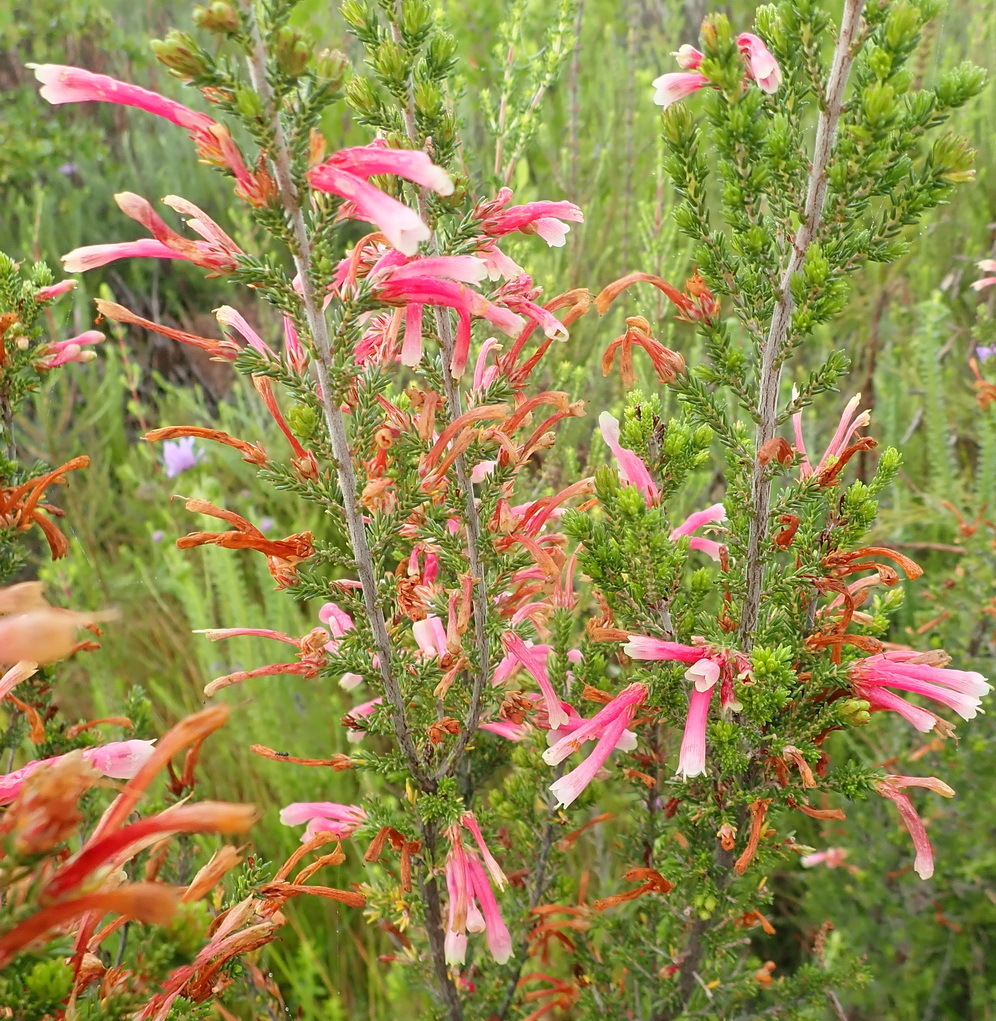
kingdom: Plantae
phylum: Tracheophyta
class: Magnoliopsida
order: Ericales
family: Ericaceae
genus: Erica
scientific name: Erica discolor
